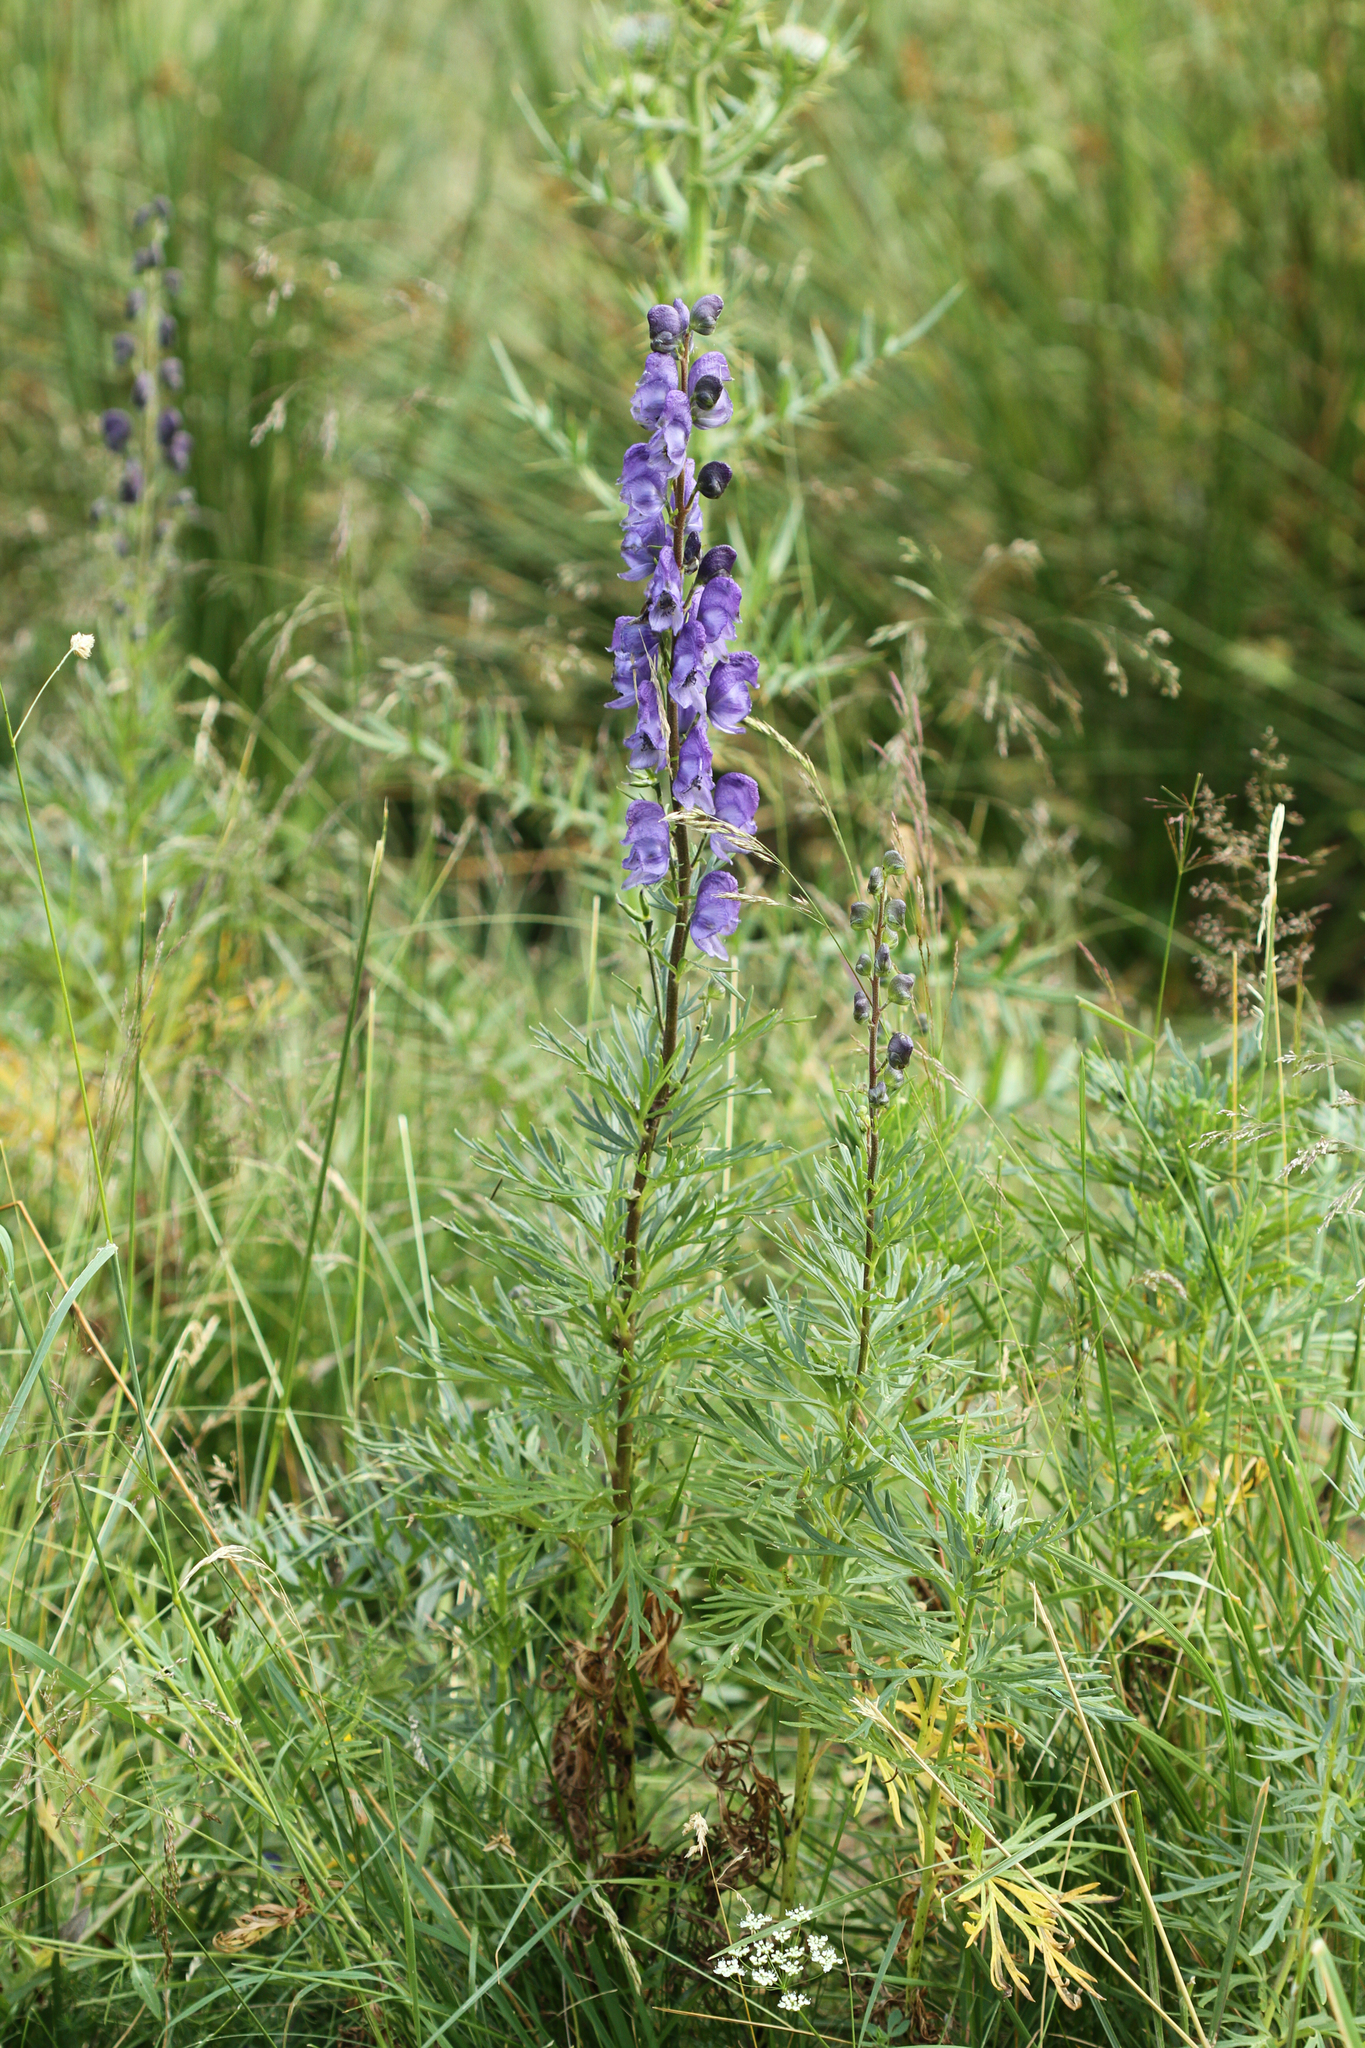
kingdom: Plantae
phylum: Tracheophyta
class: Magnoliopsida
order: Ranunculales
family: Ranunculaceae
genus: Aconitum
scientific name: Aconitum napellus
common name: Garden monkshood
